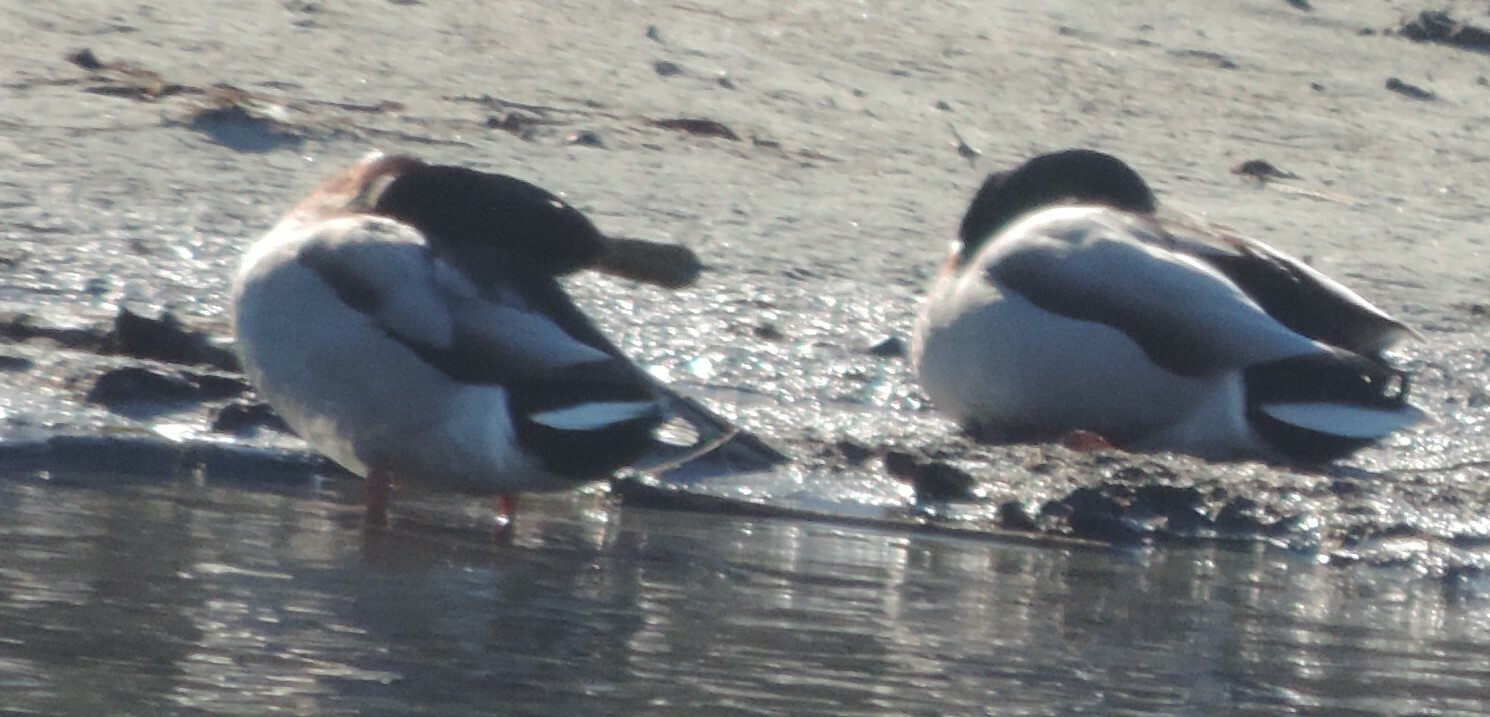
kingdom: Animalia
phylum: Chordata
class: Aves
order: Anseriformes
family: Anatidae
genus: Anas
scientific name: Anas platyrhynchos
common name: Mallard
